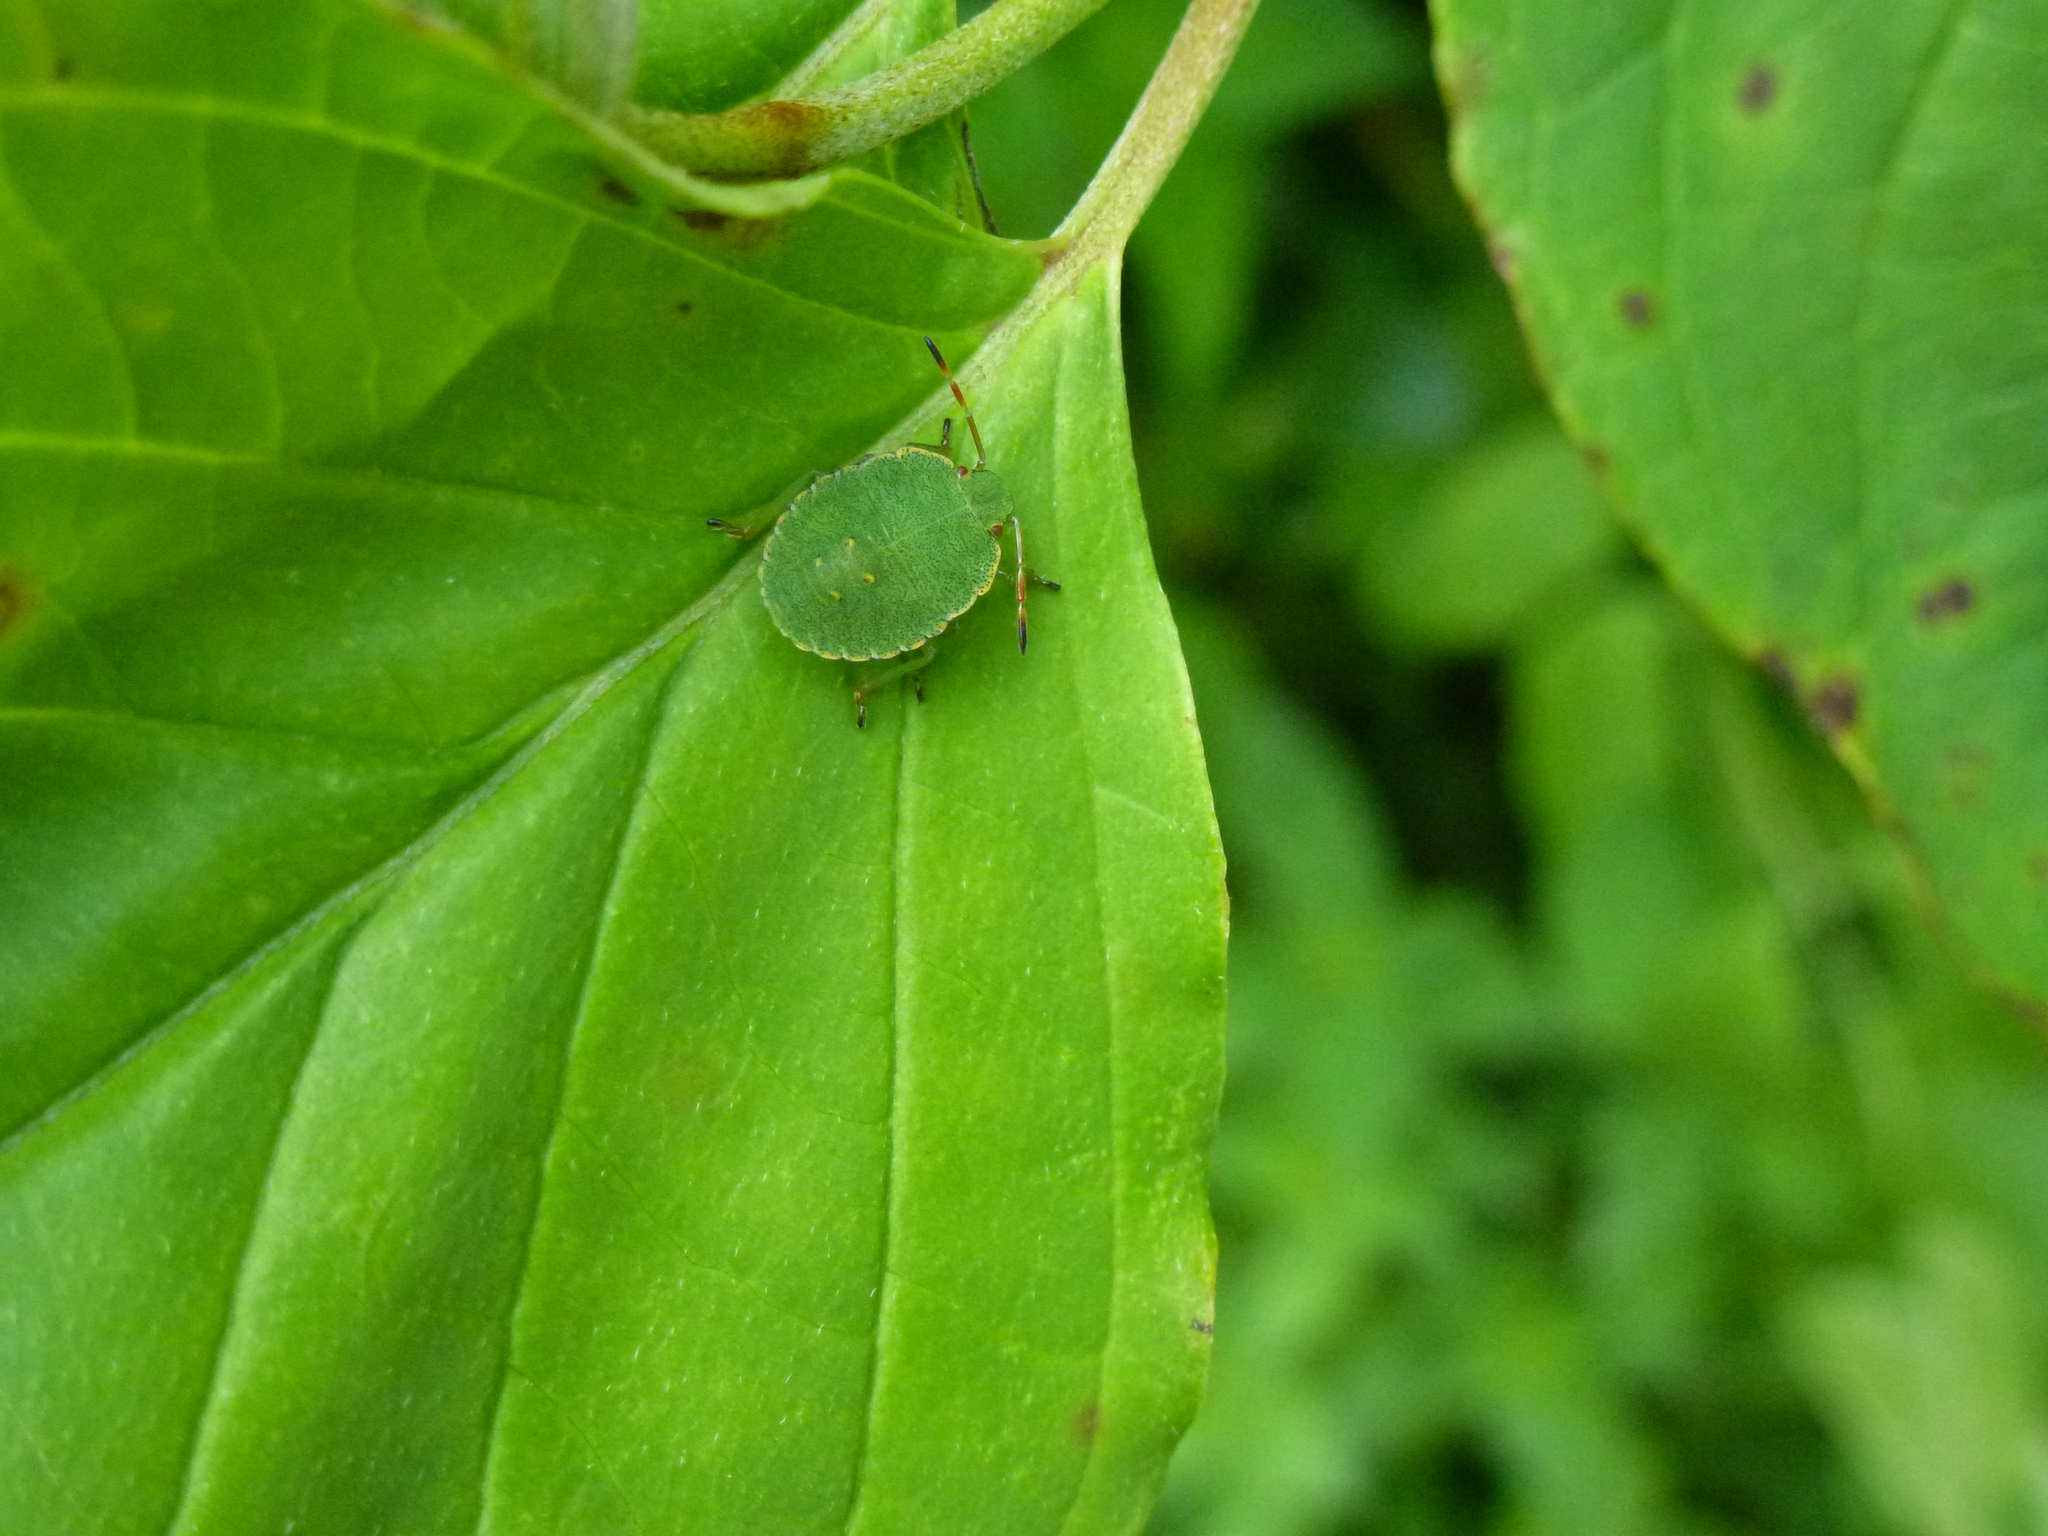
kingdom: Animalia
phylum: Arthropoda
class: Insecta
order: Hemiptera
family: Pentatomidae
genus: Palomena
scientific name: Palomena prasina
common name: Green shieldbug
